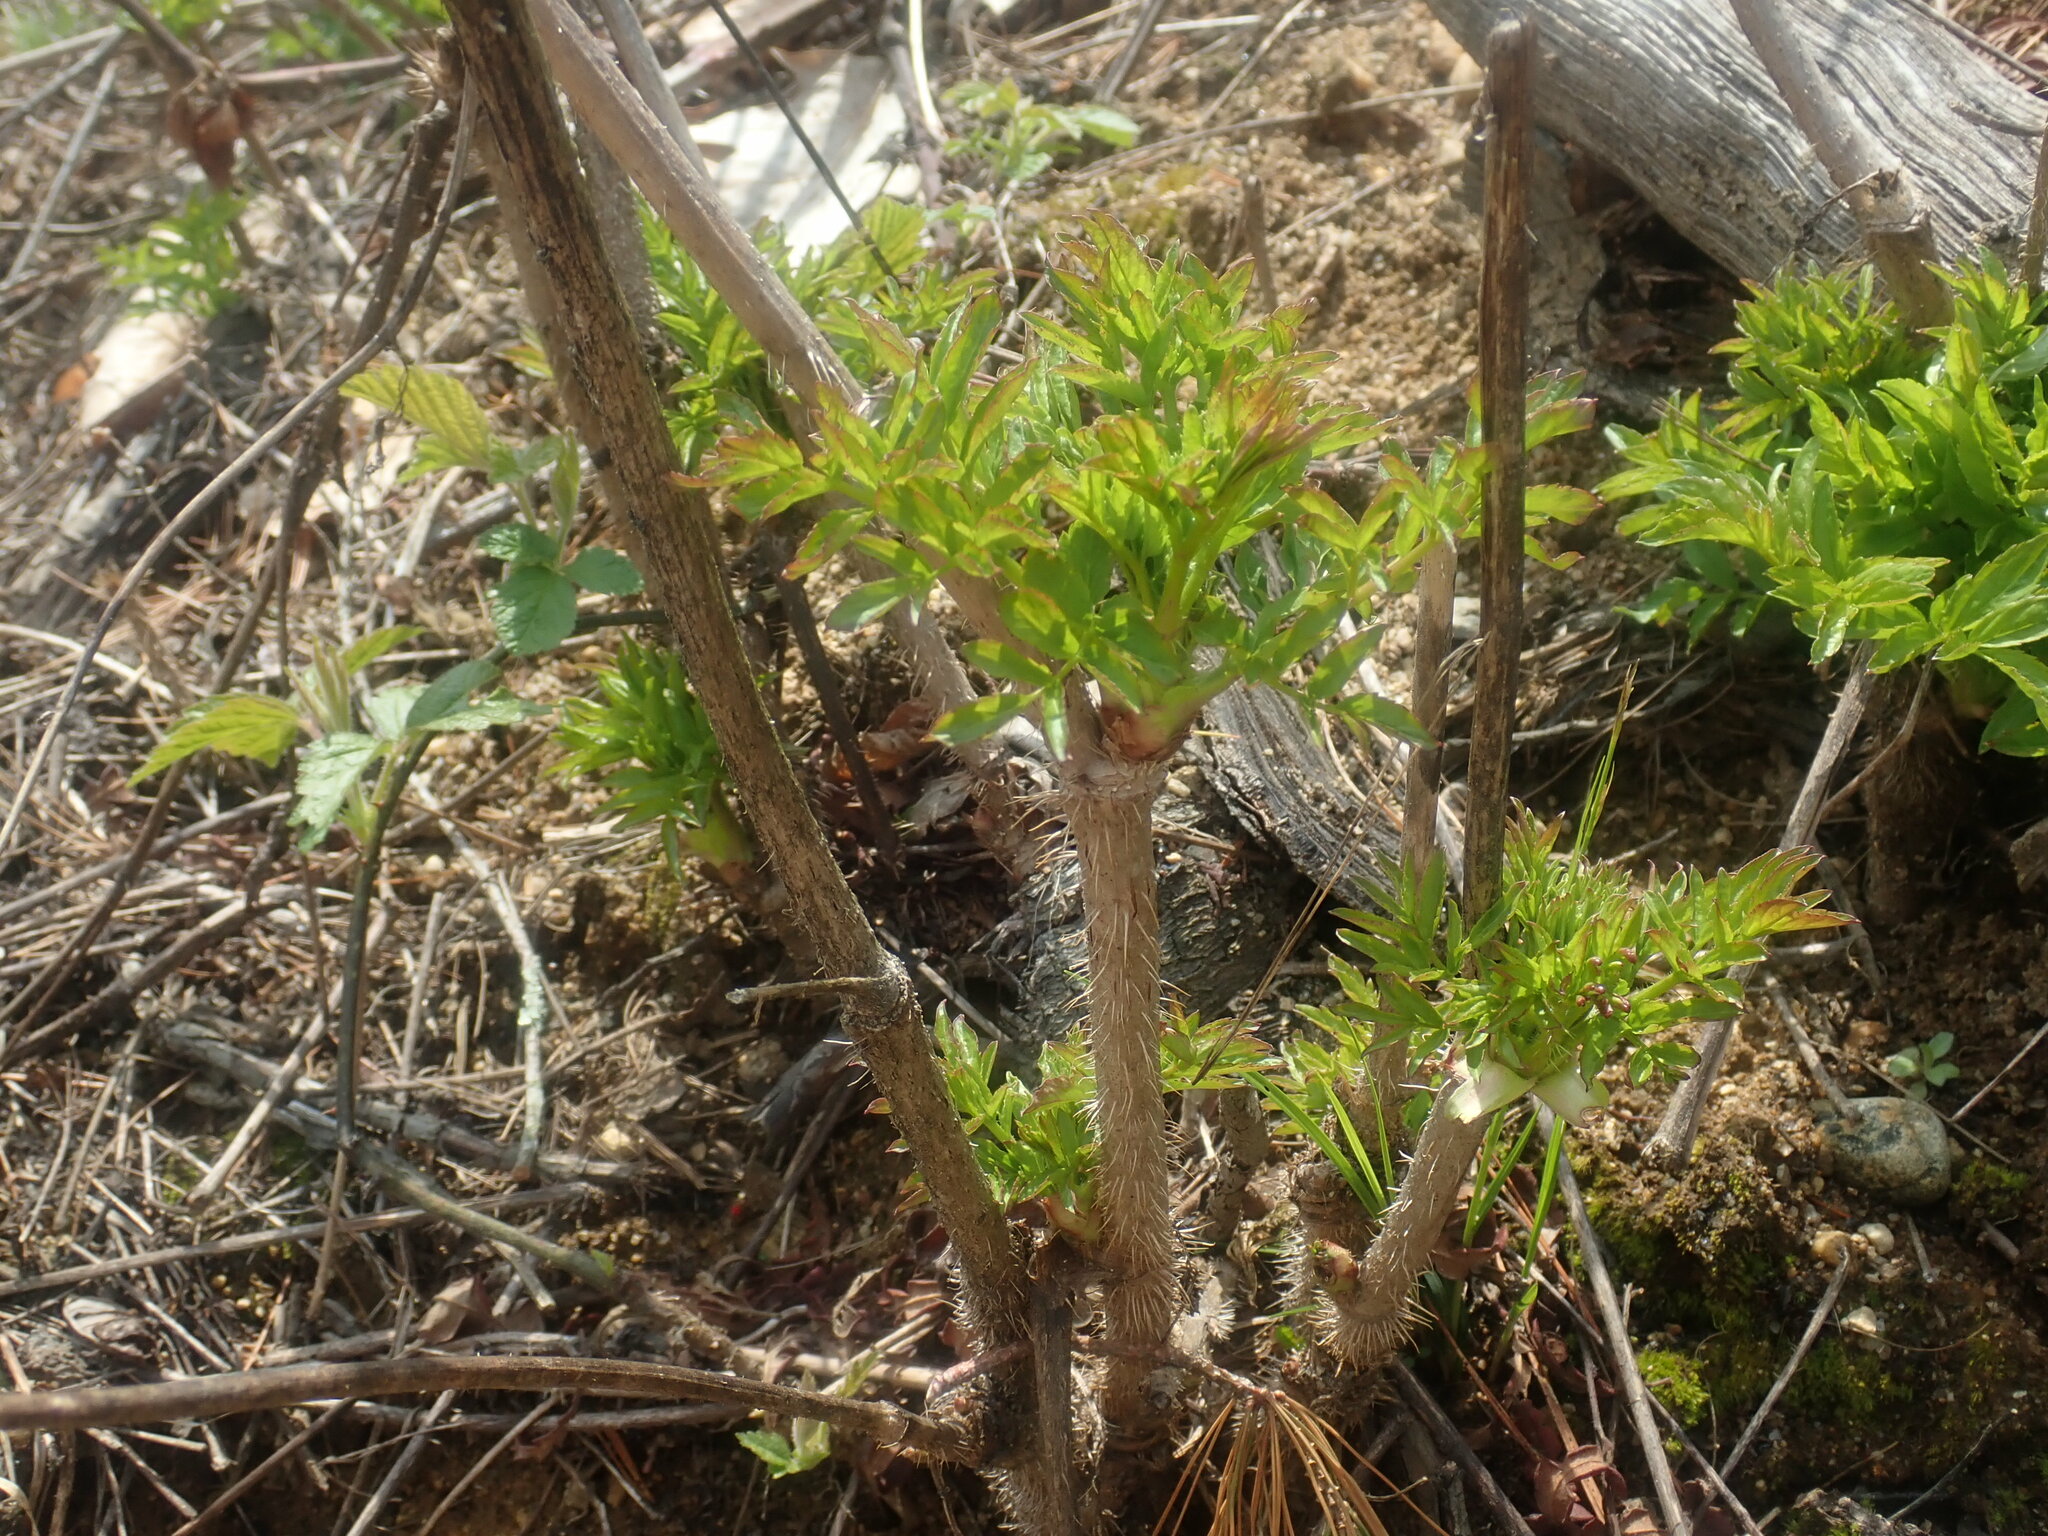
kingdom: Plantae
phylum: Tracheophyta
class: Magnoliopsida
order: Apiales
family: Araliaceae
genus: Aralia
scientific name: Aralia hispida
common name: Bristly sarsaparilla
